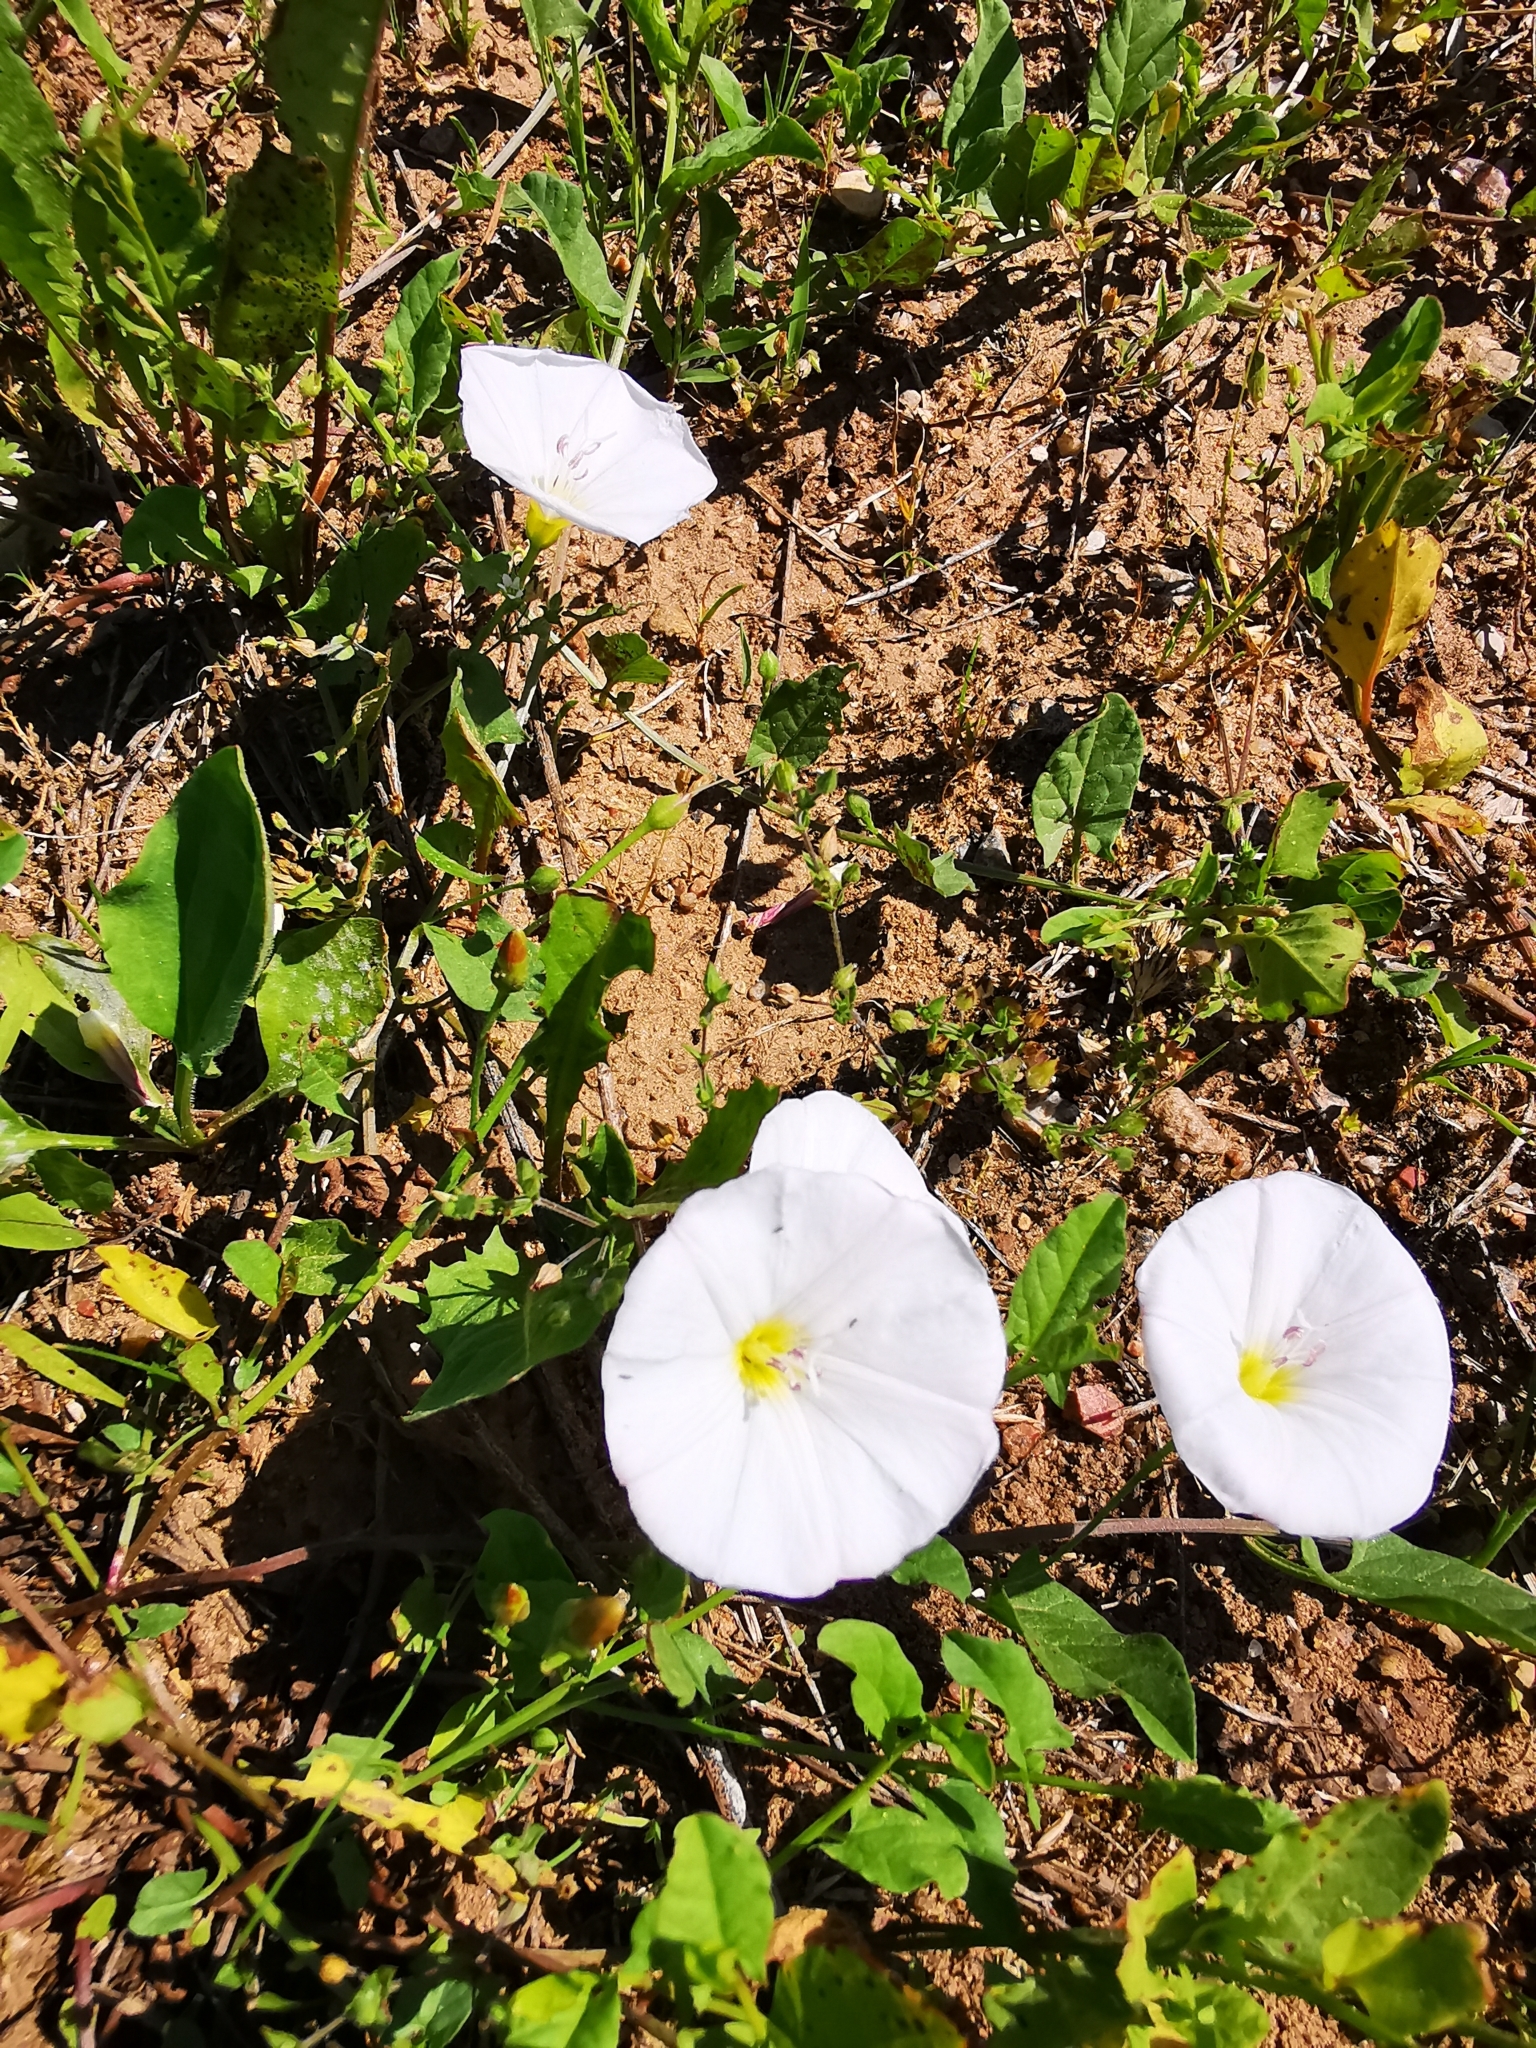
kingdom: Plantae
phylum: Tracheophyta
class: Magnoliopsida
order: Solanales
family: Convolvulaceae
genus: Convolvulus
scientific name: Convolvulus arvensis
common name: Field bindweed
